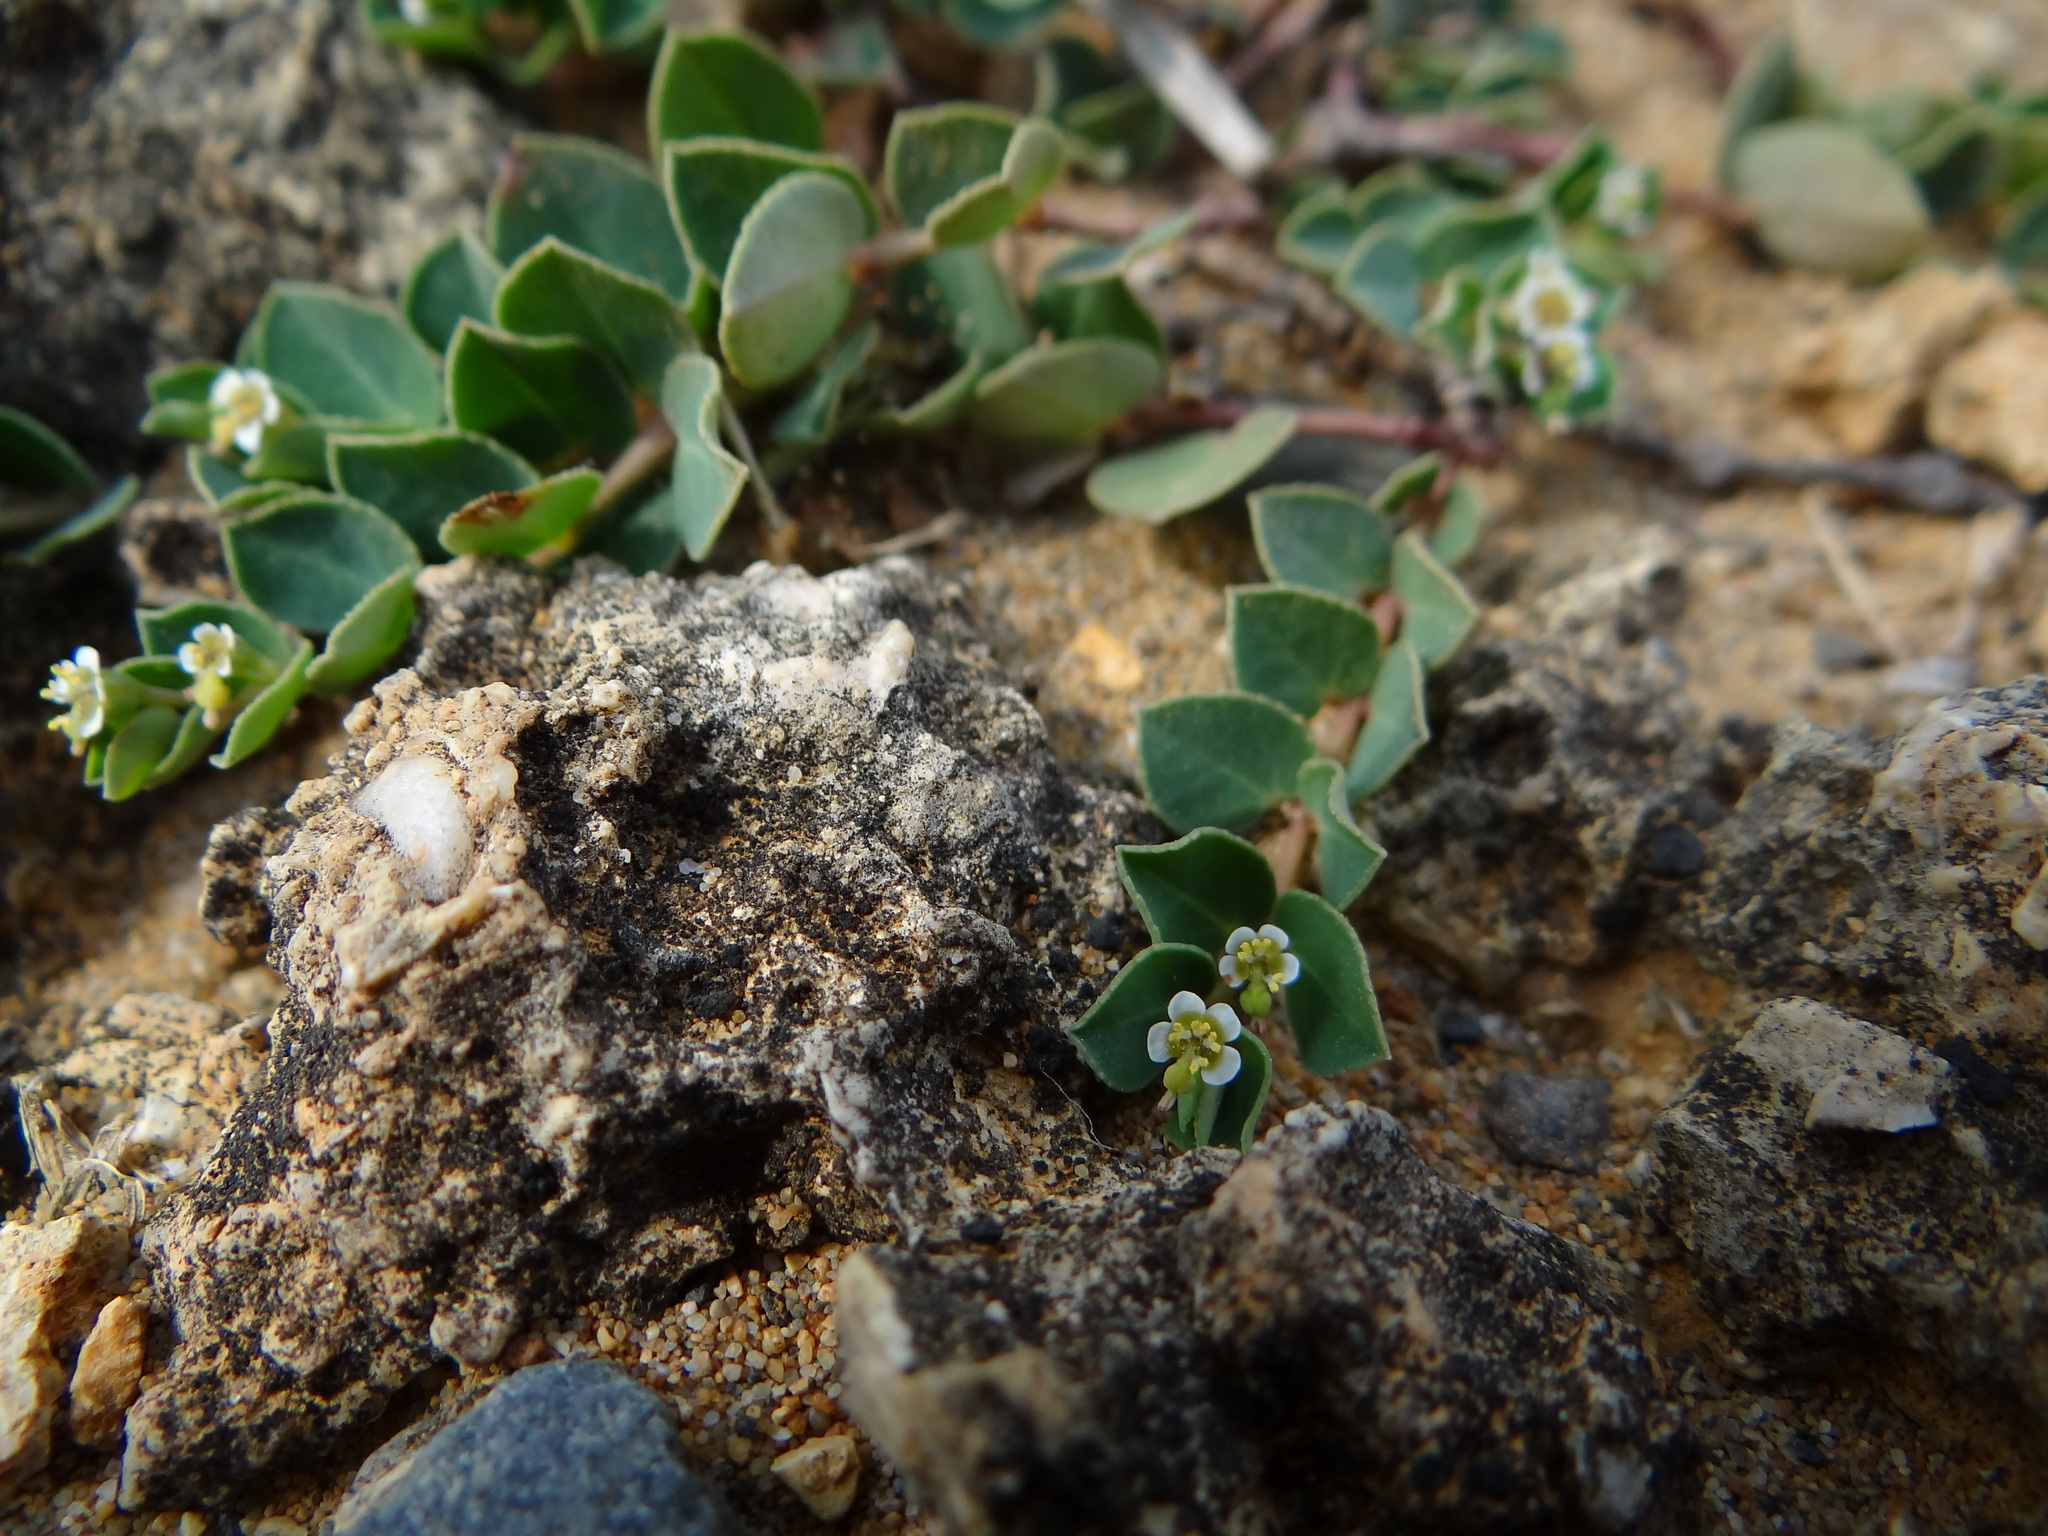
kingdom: Plantae
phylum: Tracheophyta
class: Magnoliopsida
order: Malpighiales
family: Euphorbiaceae
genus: Euphorbia
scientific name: Euphorbia garanbiensis
